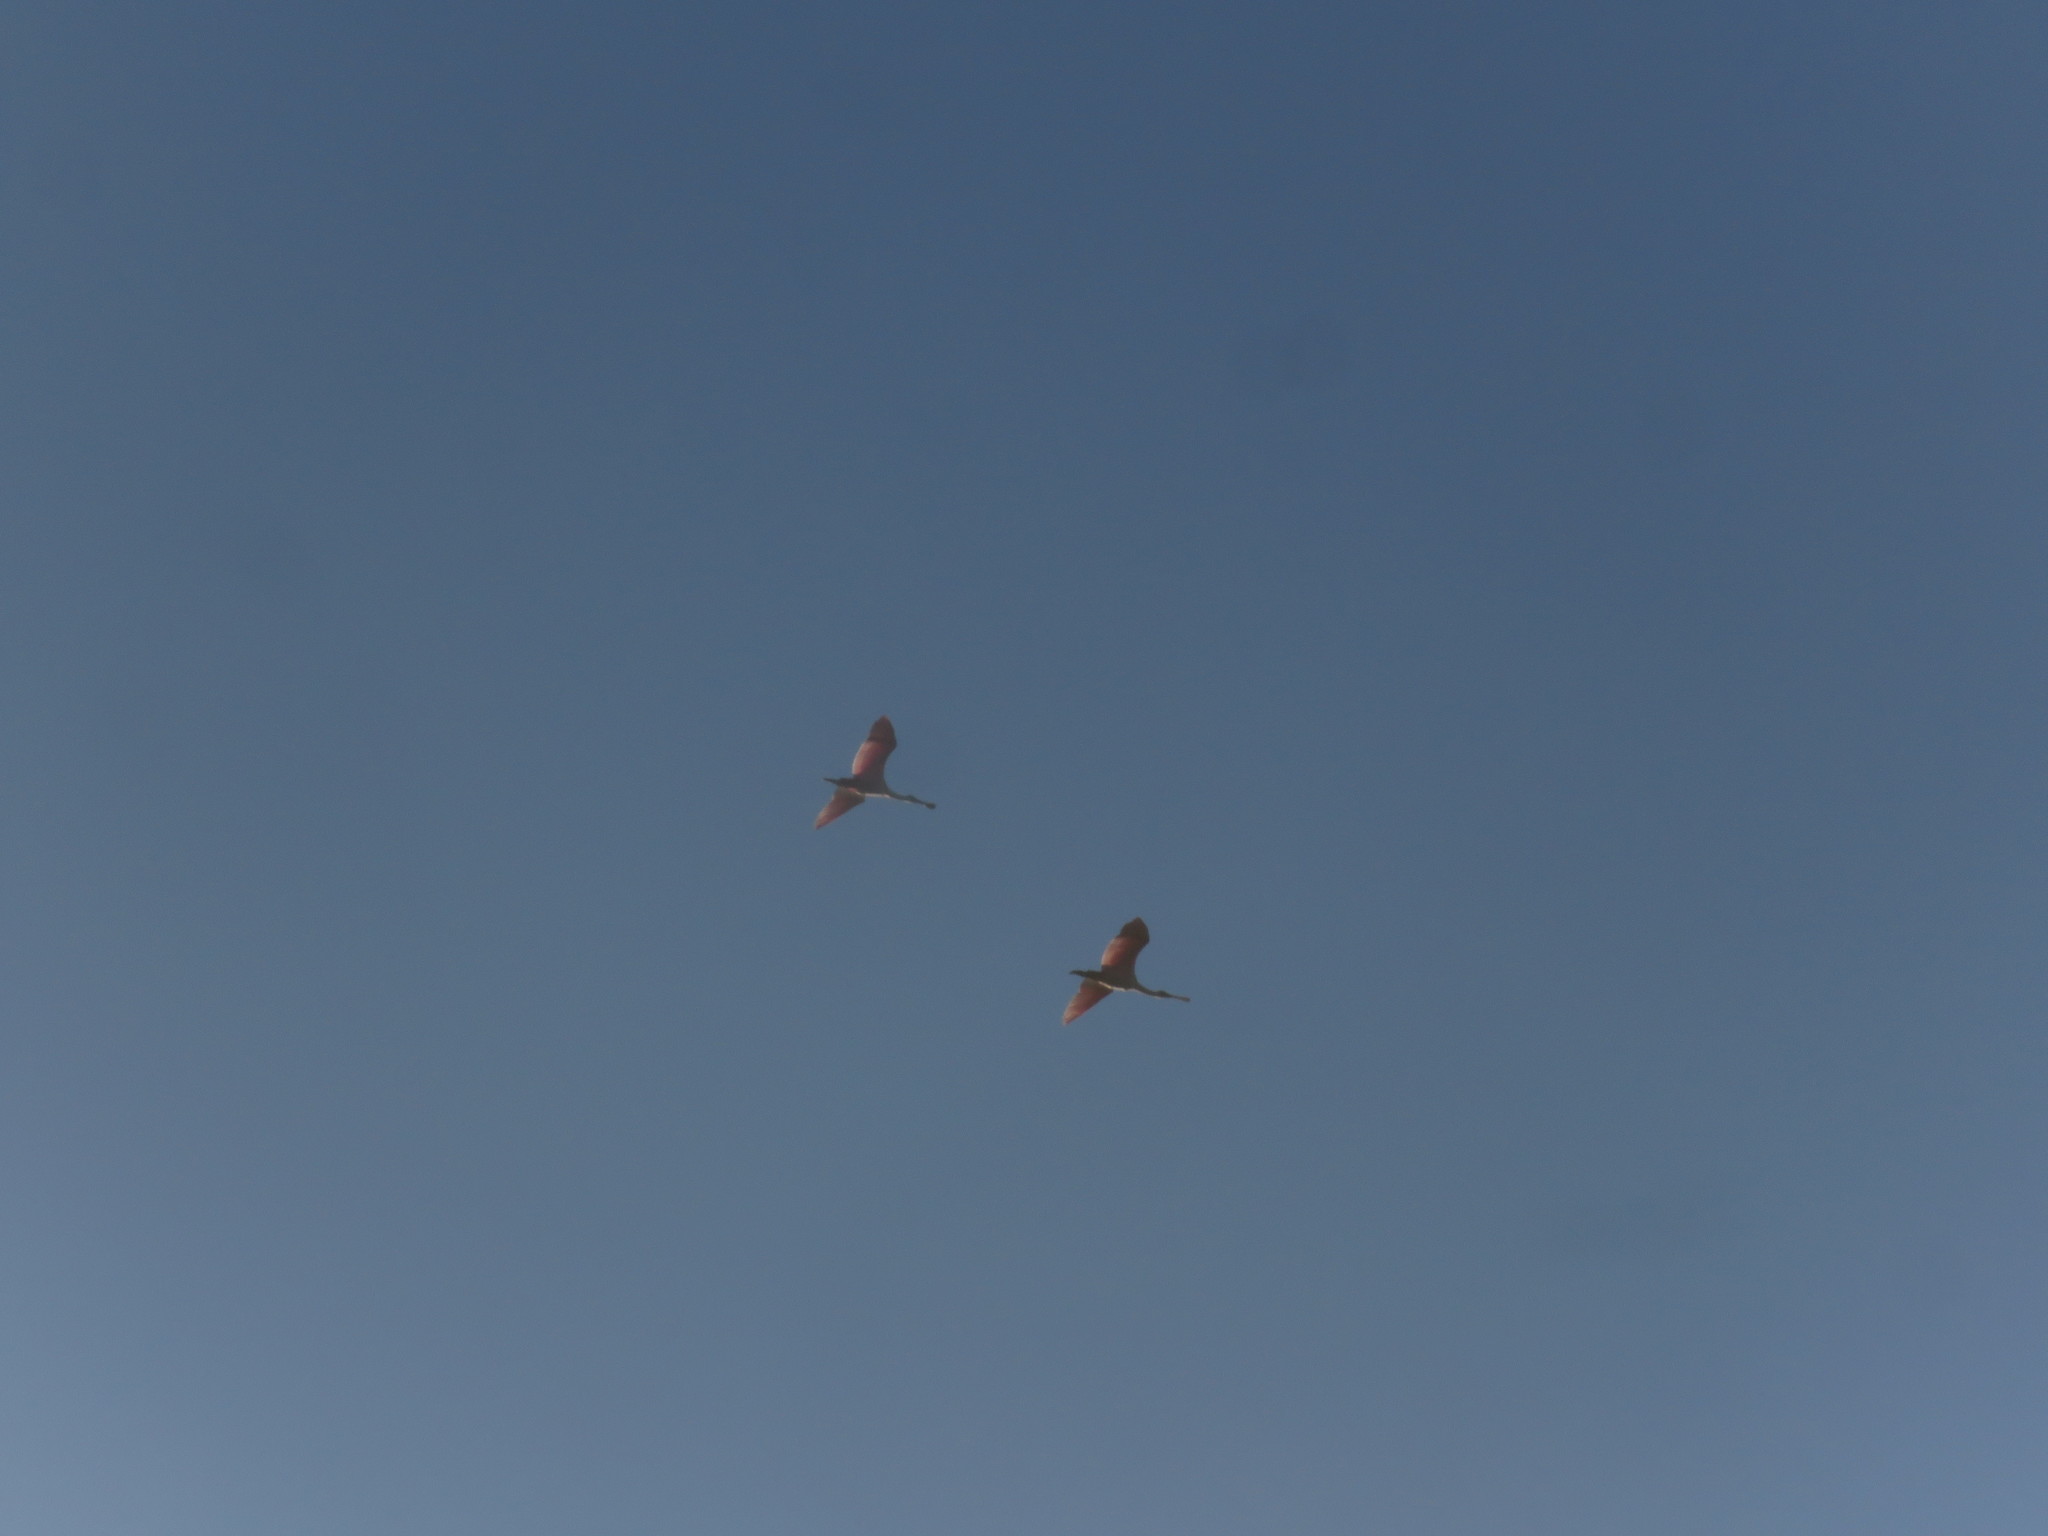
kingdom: Animalia
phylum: Chordata
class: Aves
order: Pelecaniformes
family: Threskiornithidae
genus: Platalea
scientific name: Platalea ajaja
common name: Roseate spoonbill
